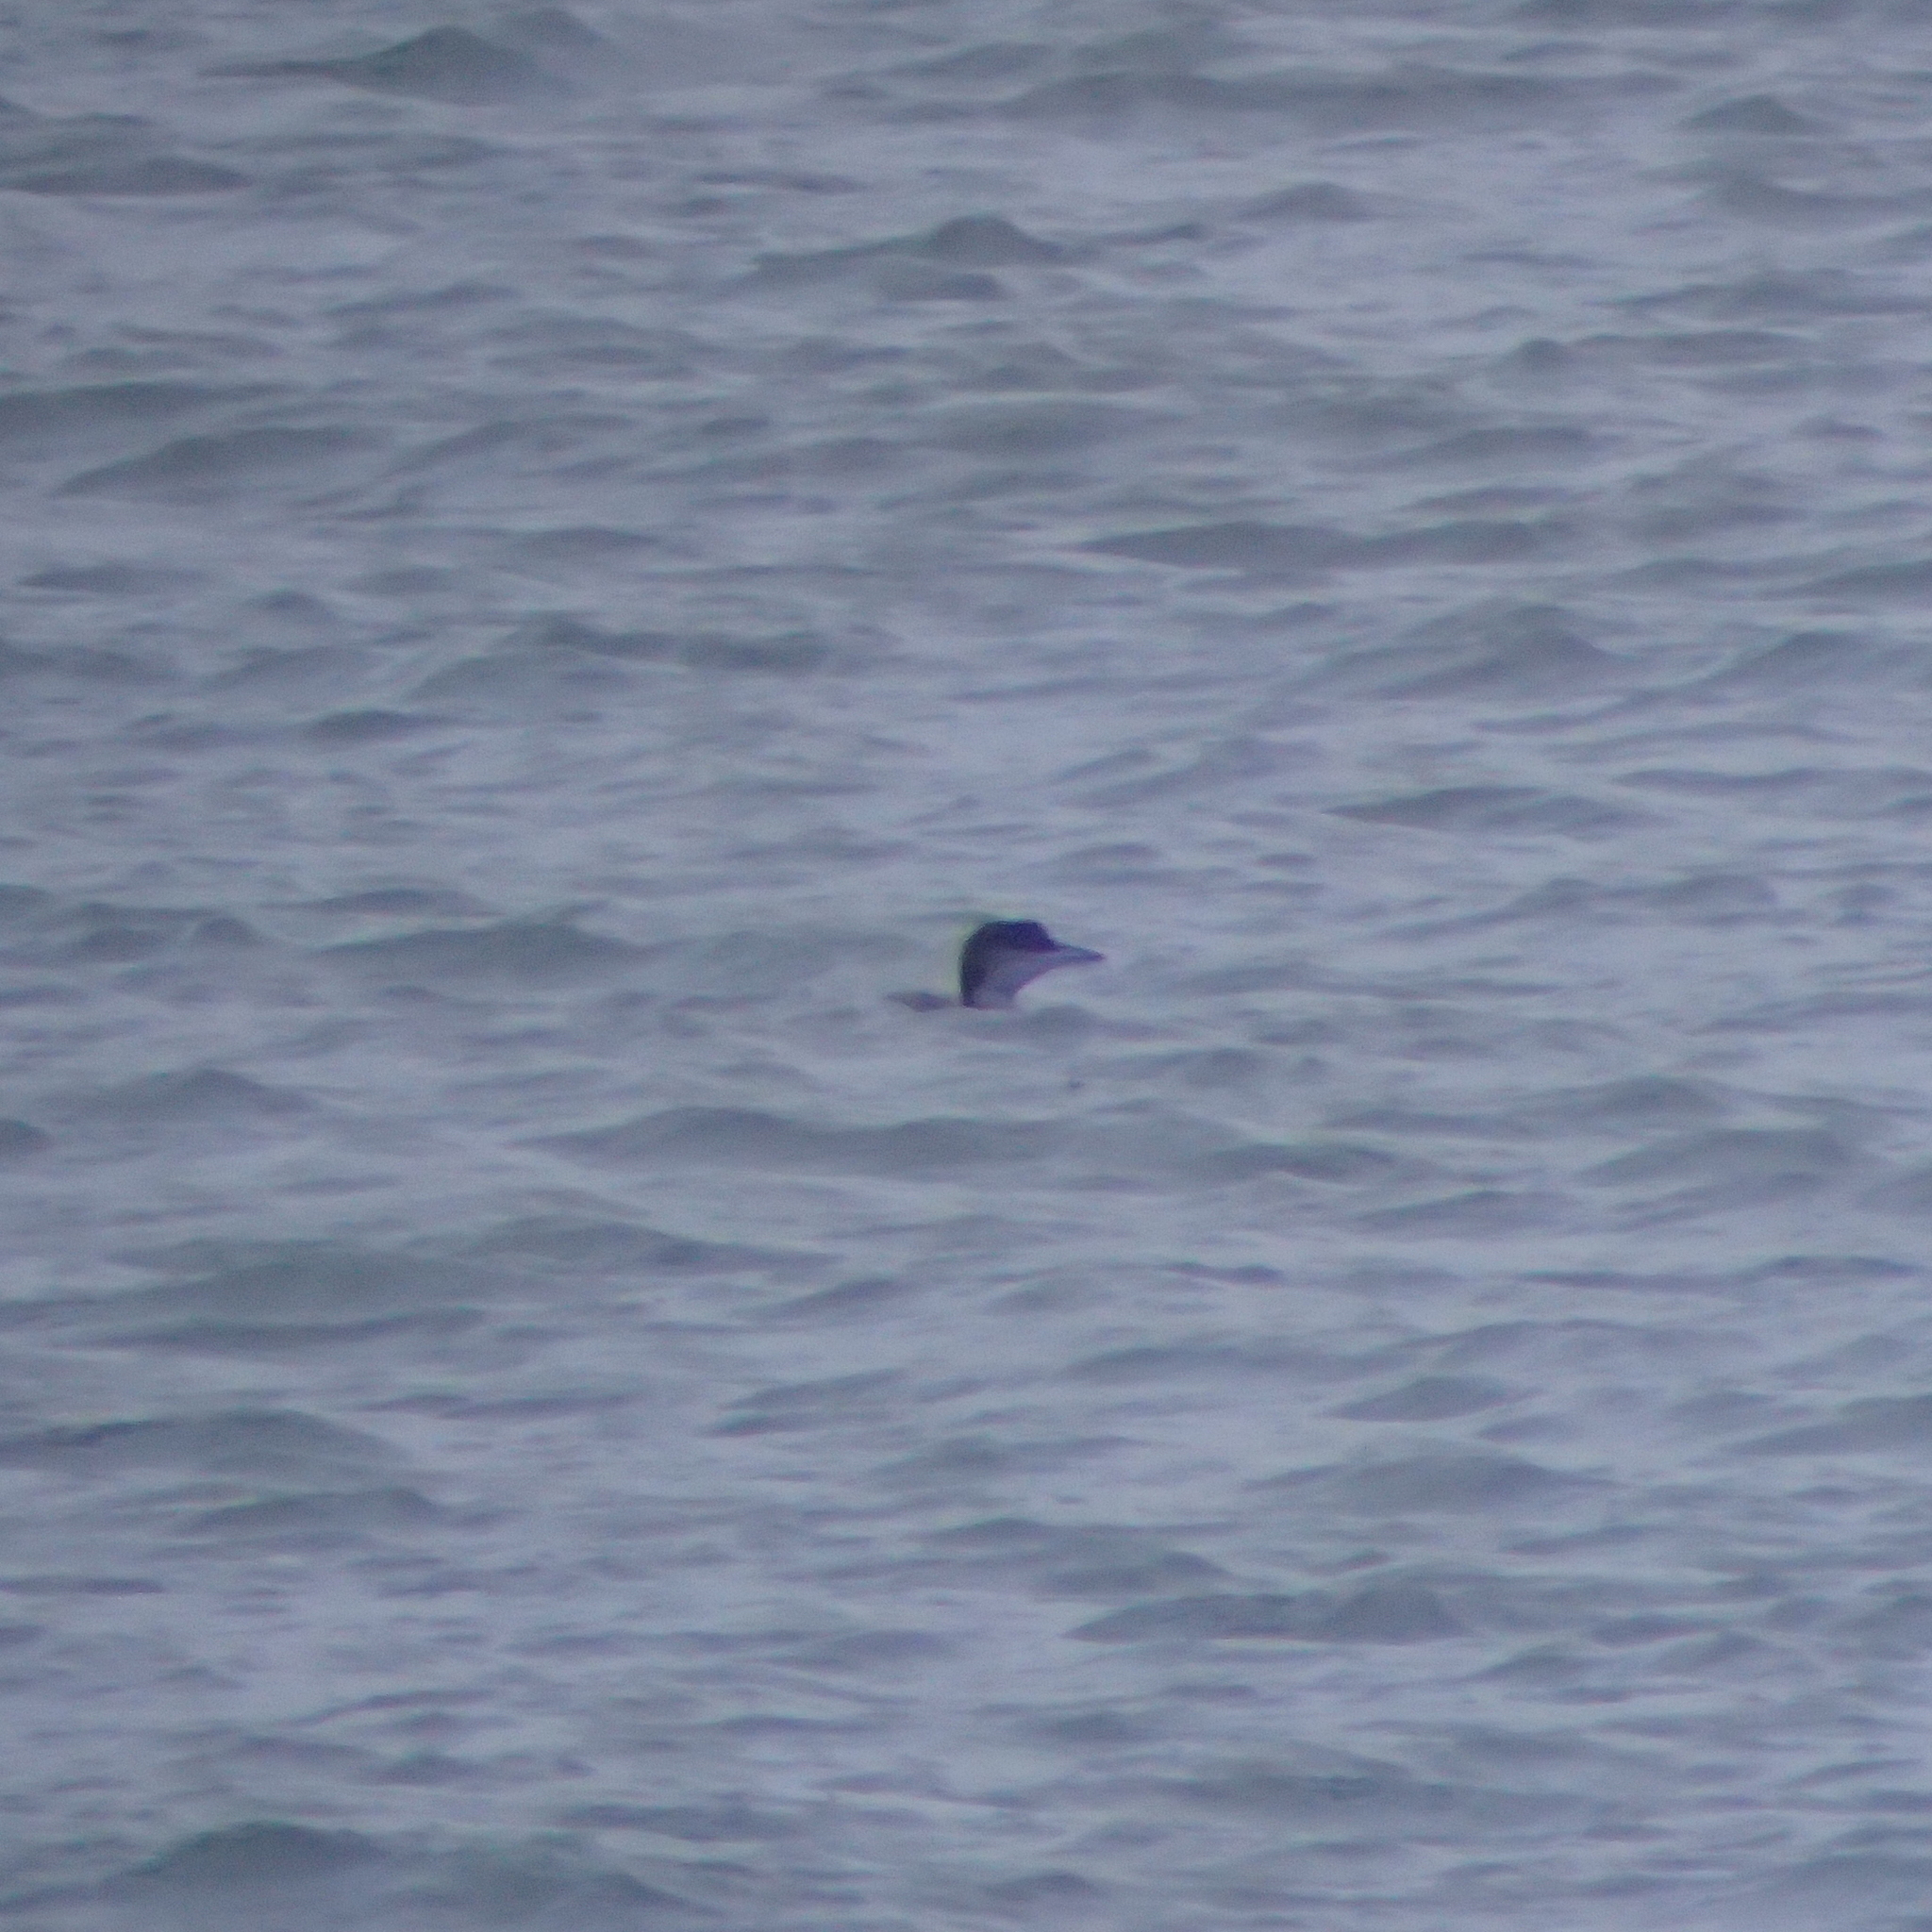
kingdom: Animalia
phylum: Chordata
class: Aves
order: Gaviiformes
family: Gaviidae
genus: Gavia
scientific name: Gavia immer
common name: Common loon
